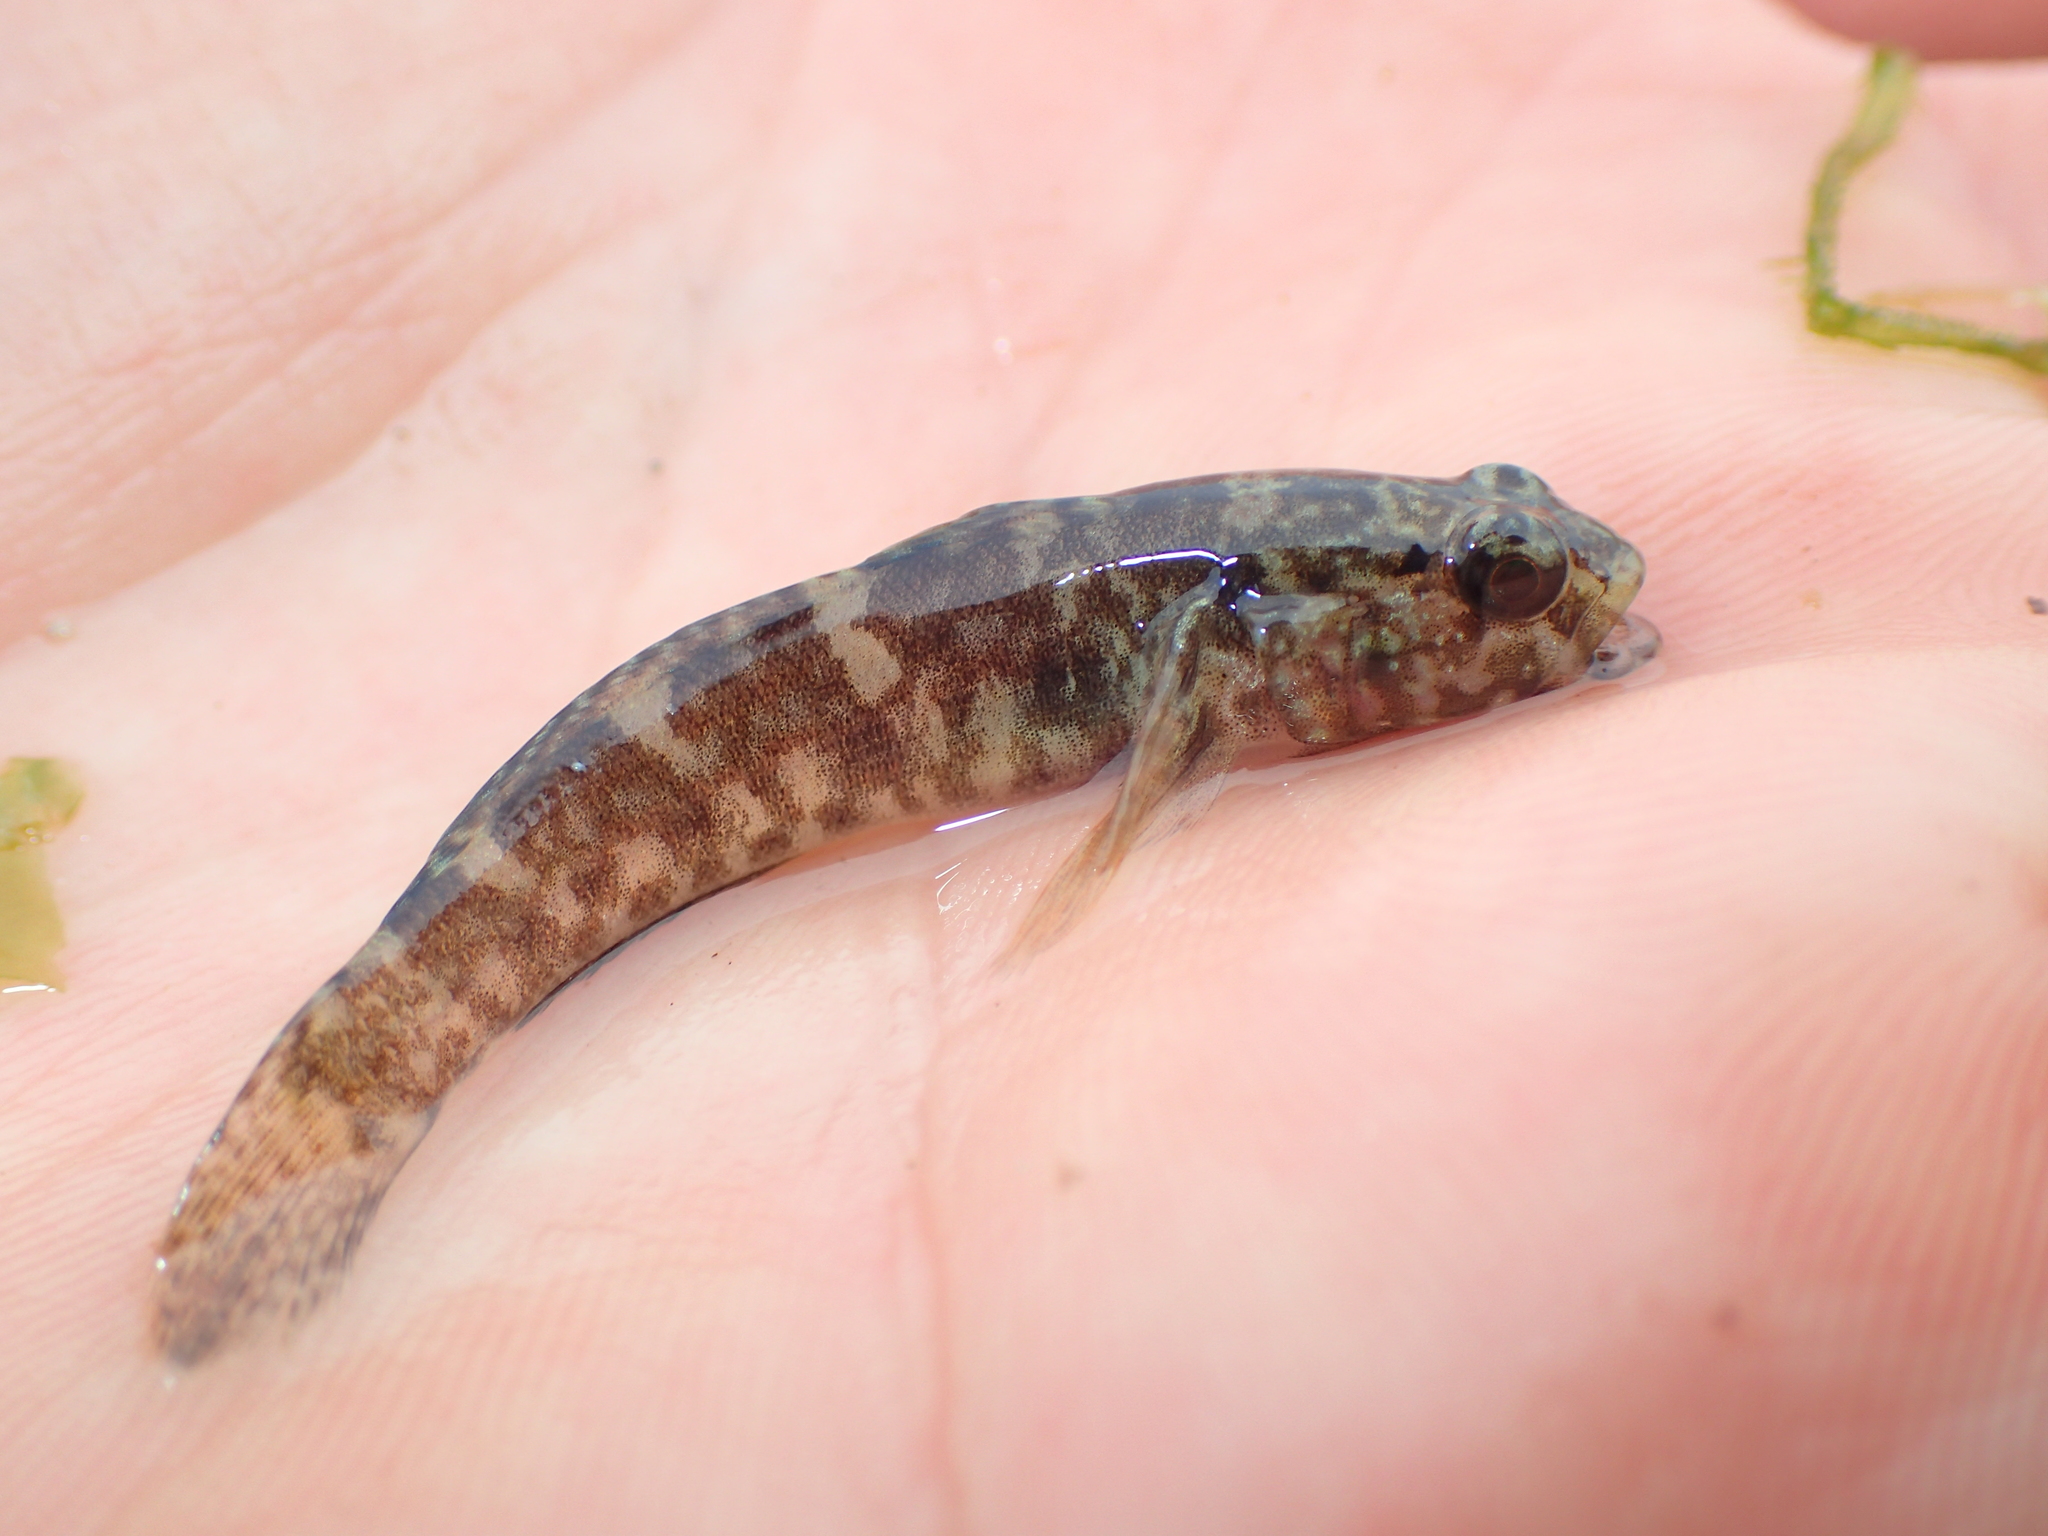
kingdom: Animalia
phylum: Chordata
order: Perciformes
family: Gobiidae
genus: Gobius
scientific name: Gobius paganellus
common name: Rock goby
